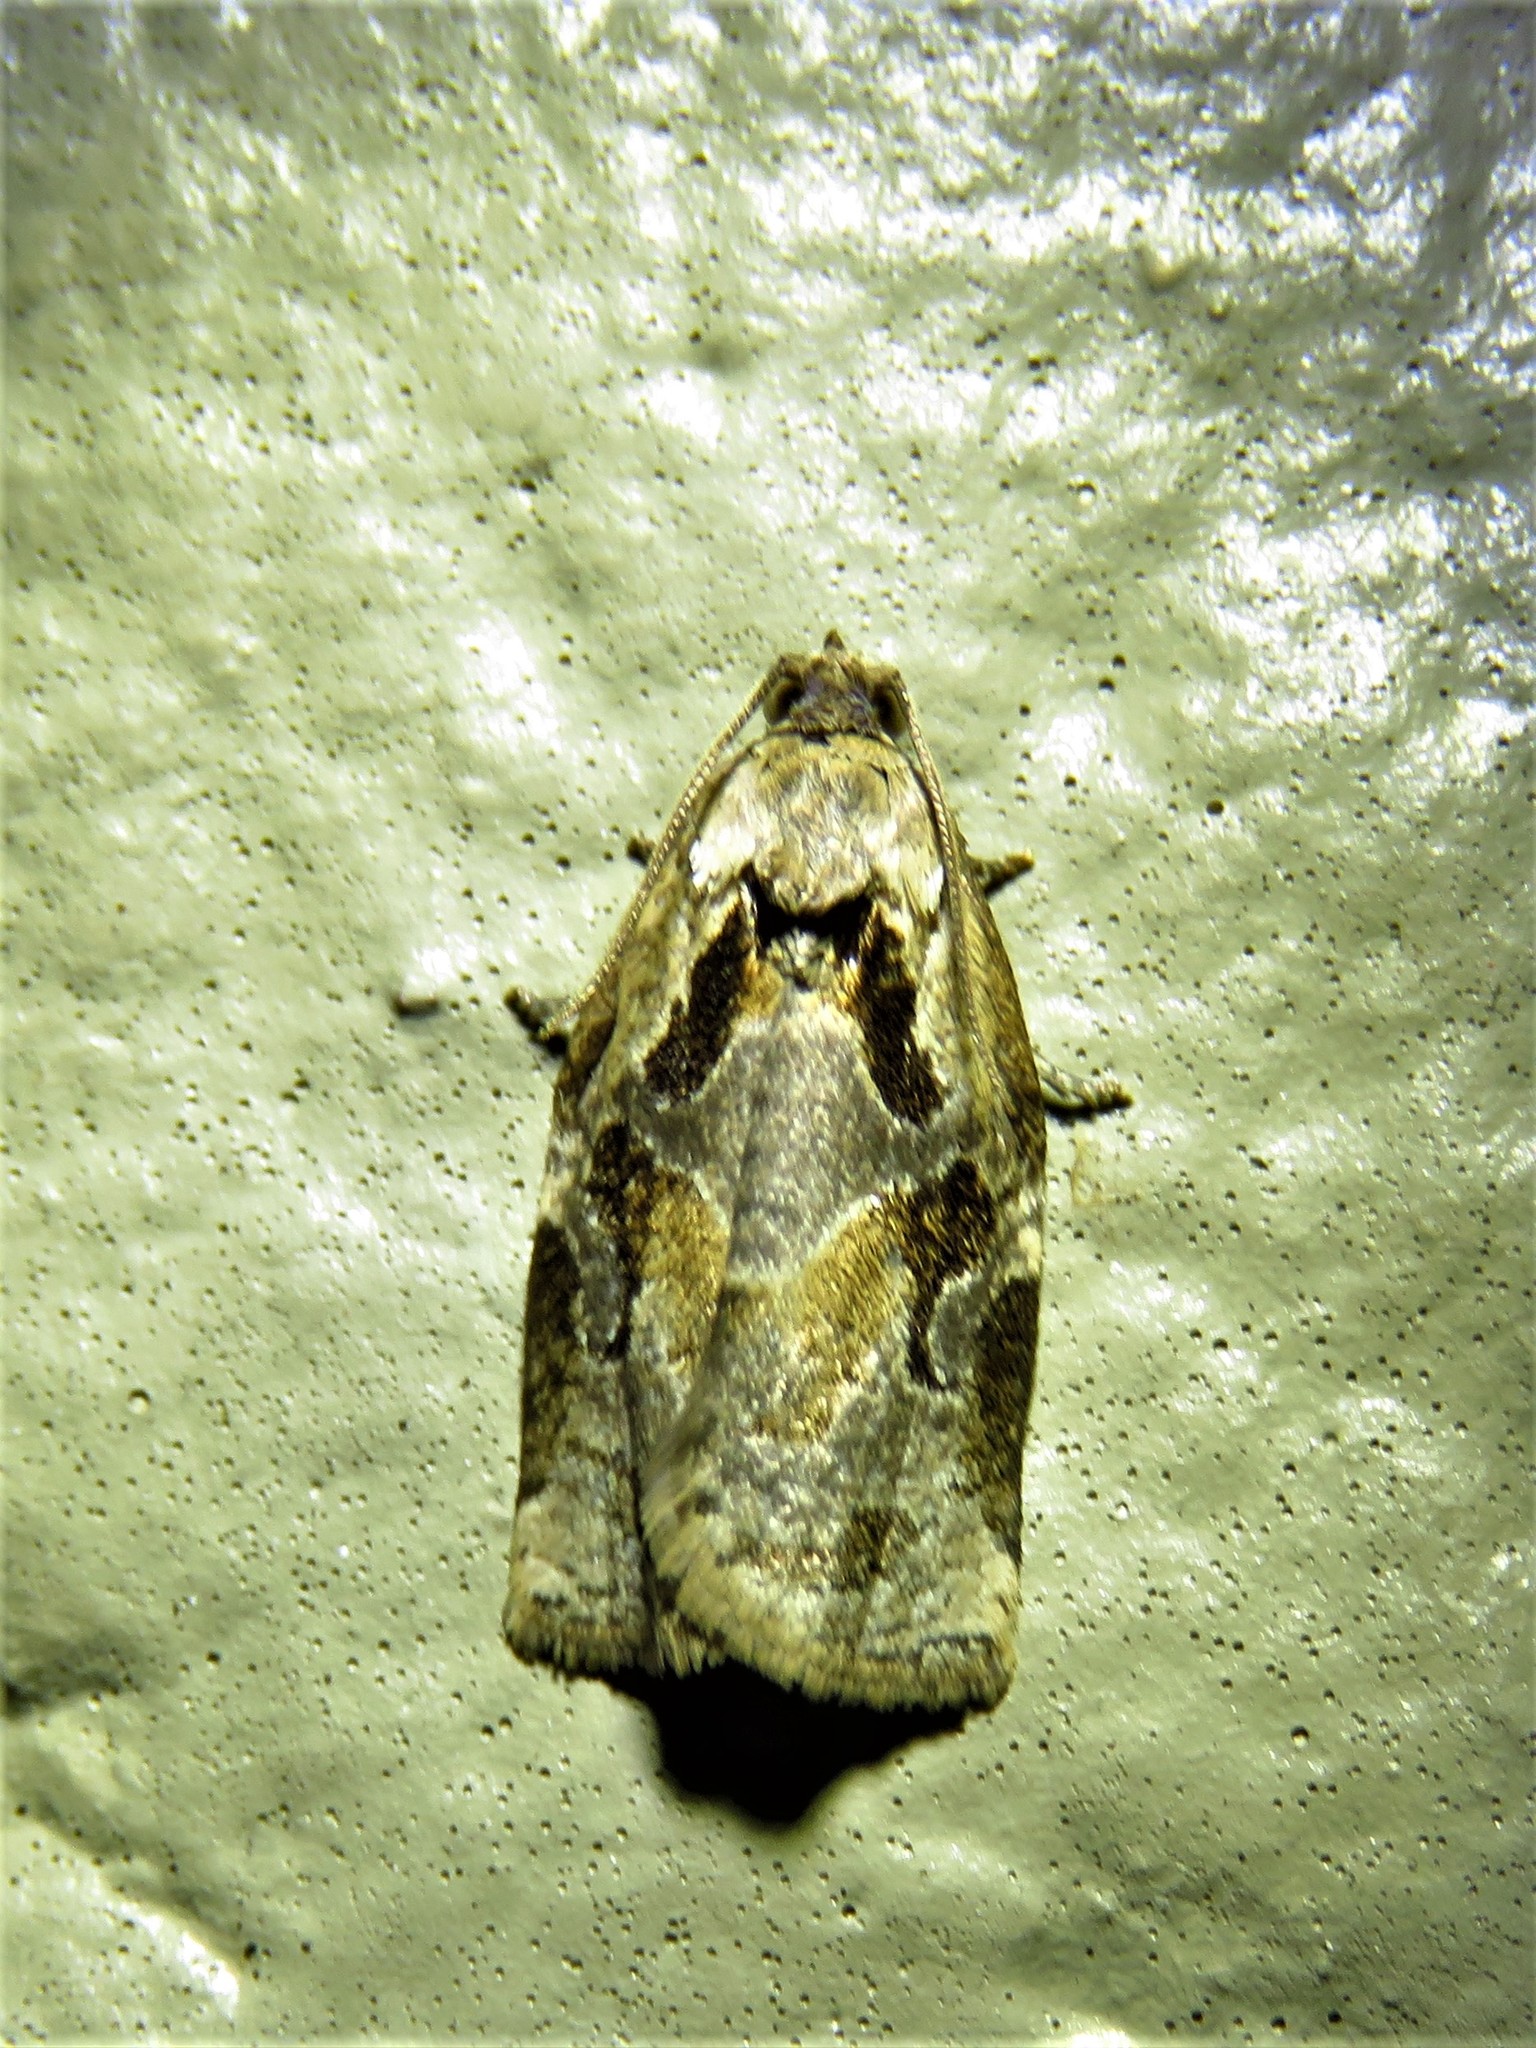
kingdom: Animalia
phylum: Arthropoda
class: Insecta
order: Lepidoptera
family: Tortricidae
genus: Archips
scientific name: Archips grisea
